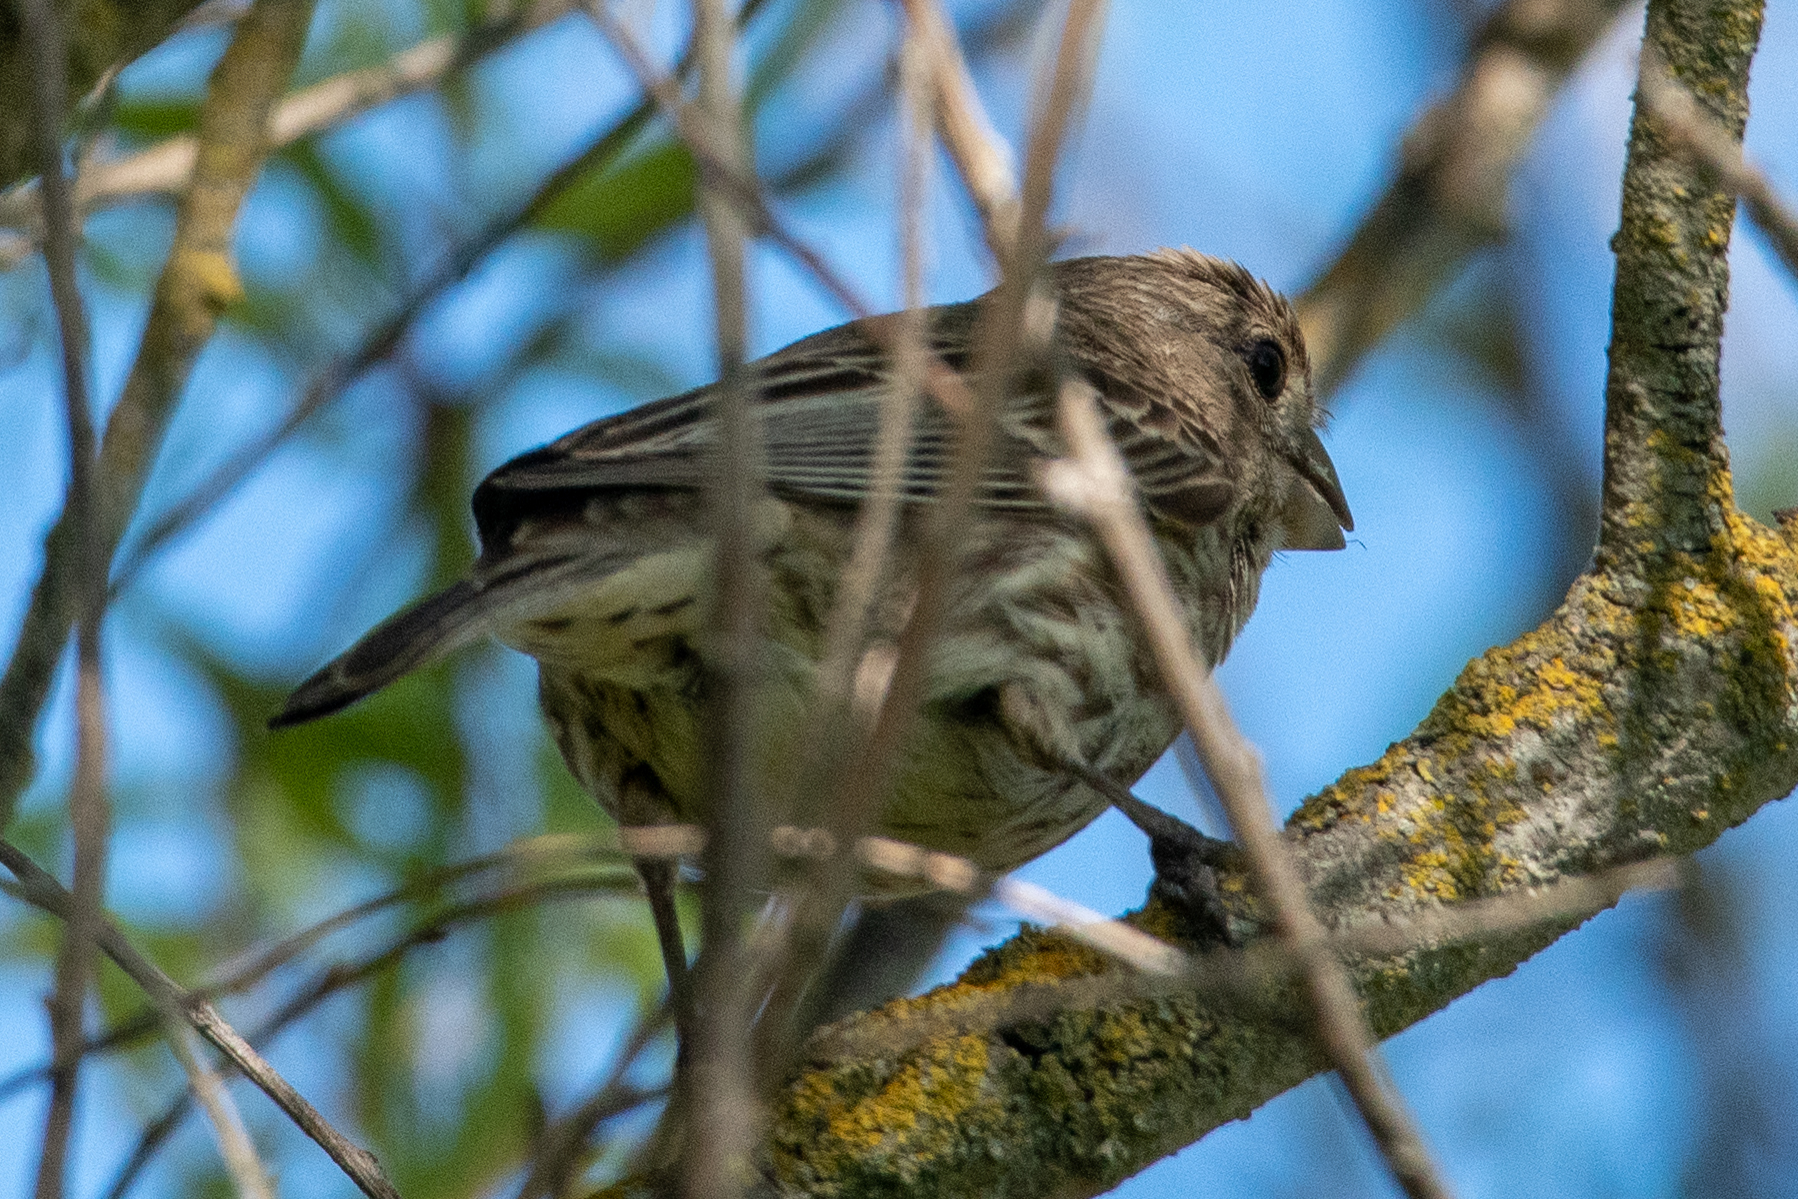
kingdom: Animalia
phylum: Chordata
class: Aves
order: Passeriformes
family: Fringillidae
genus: Haemorhous
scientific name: Haemorhous mexicanus
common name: House finch
